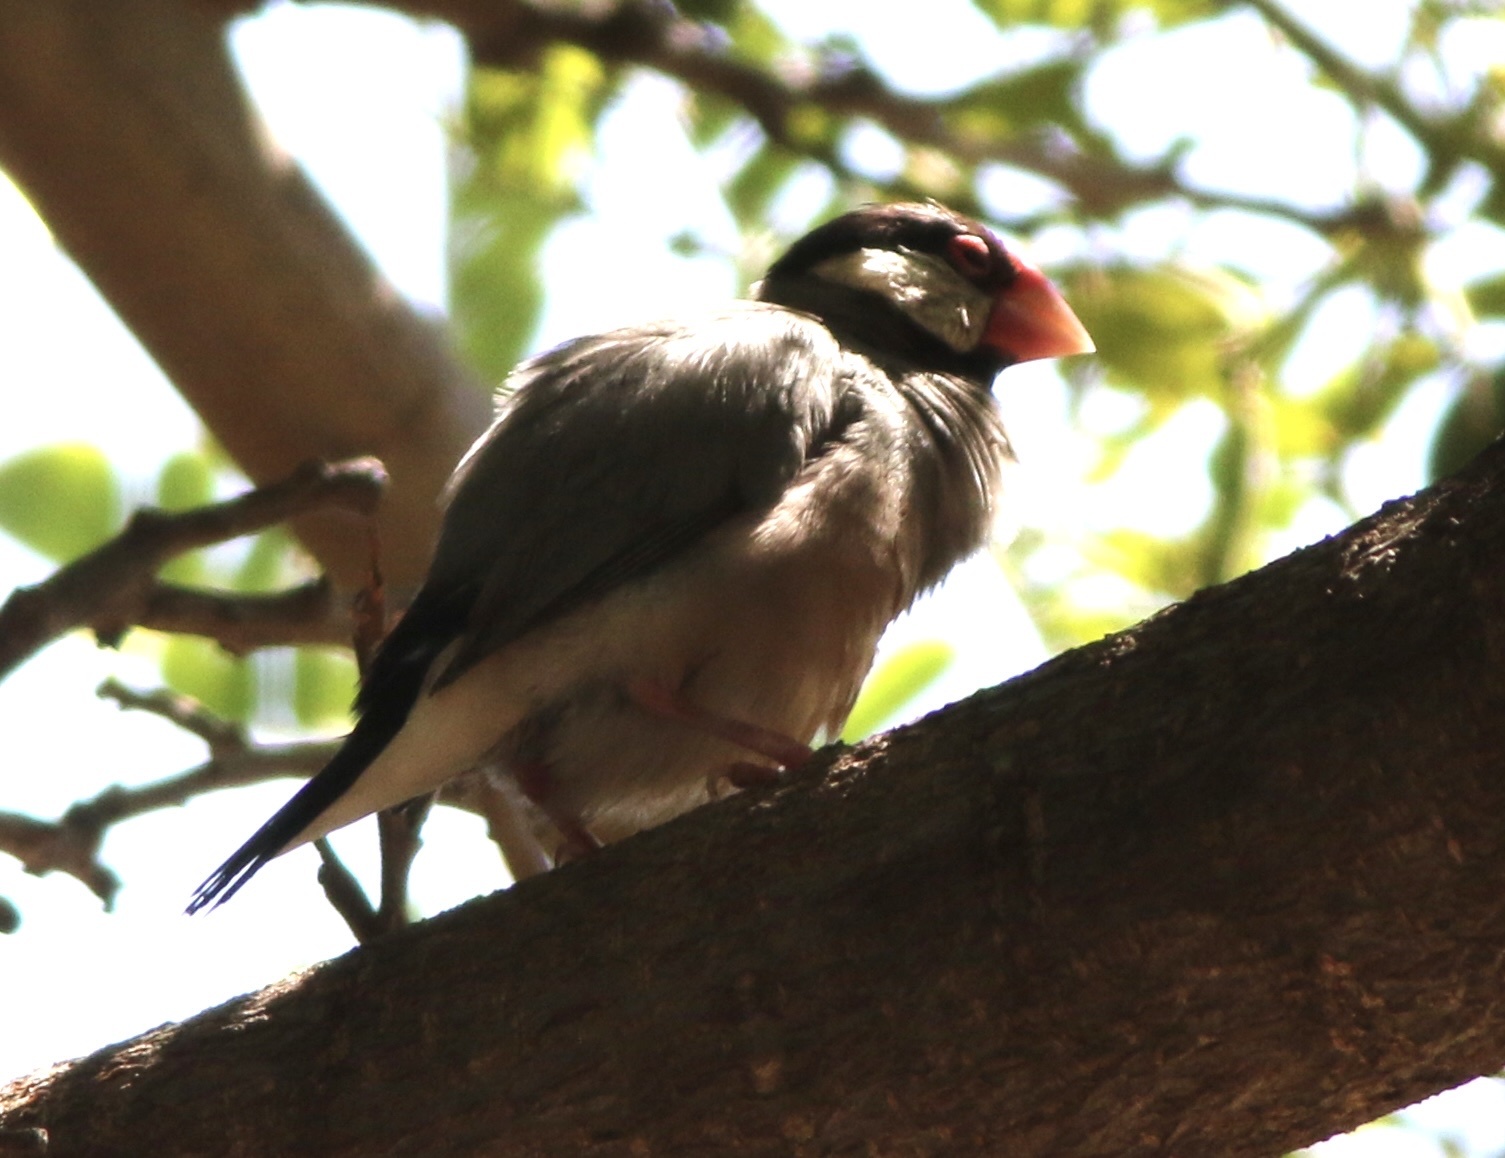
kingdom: Animalia
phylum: Chordata
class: Aves
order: Passeriformes
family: Estrildidae
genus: Lonchura
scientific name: Lonchura oryzivora
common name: Java sparrow
